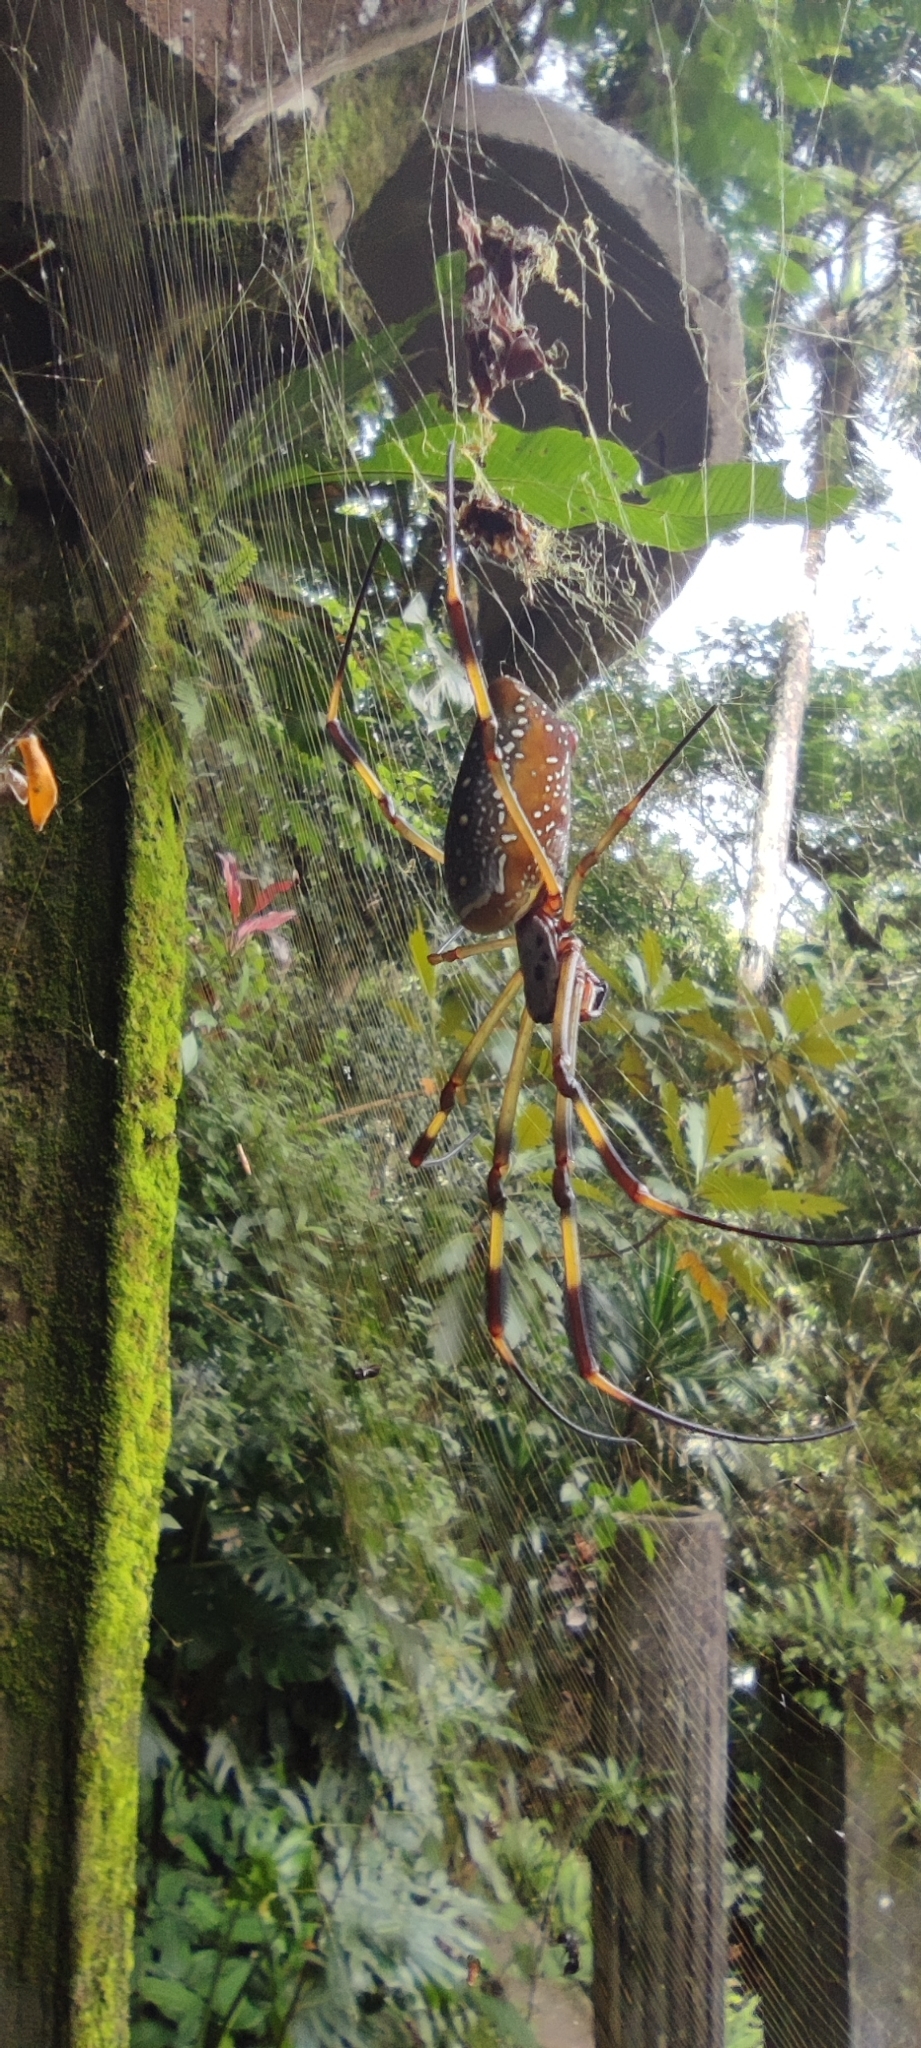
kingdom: Animalia
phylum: Arthropoda
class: Arachnida
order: Araneae
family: Araneidae
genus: Trichonephila
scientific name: Trichonephila clavipes
